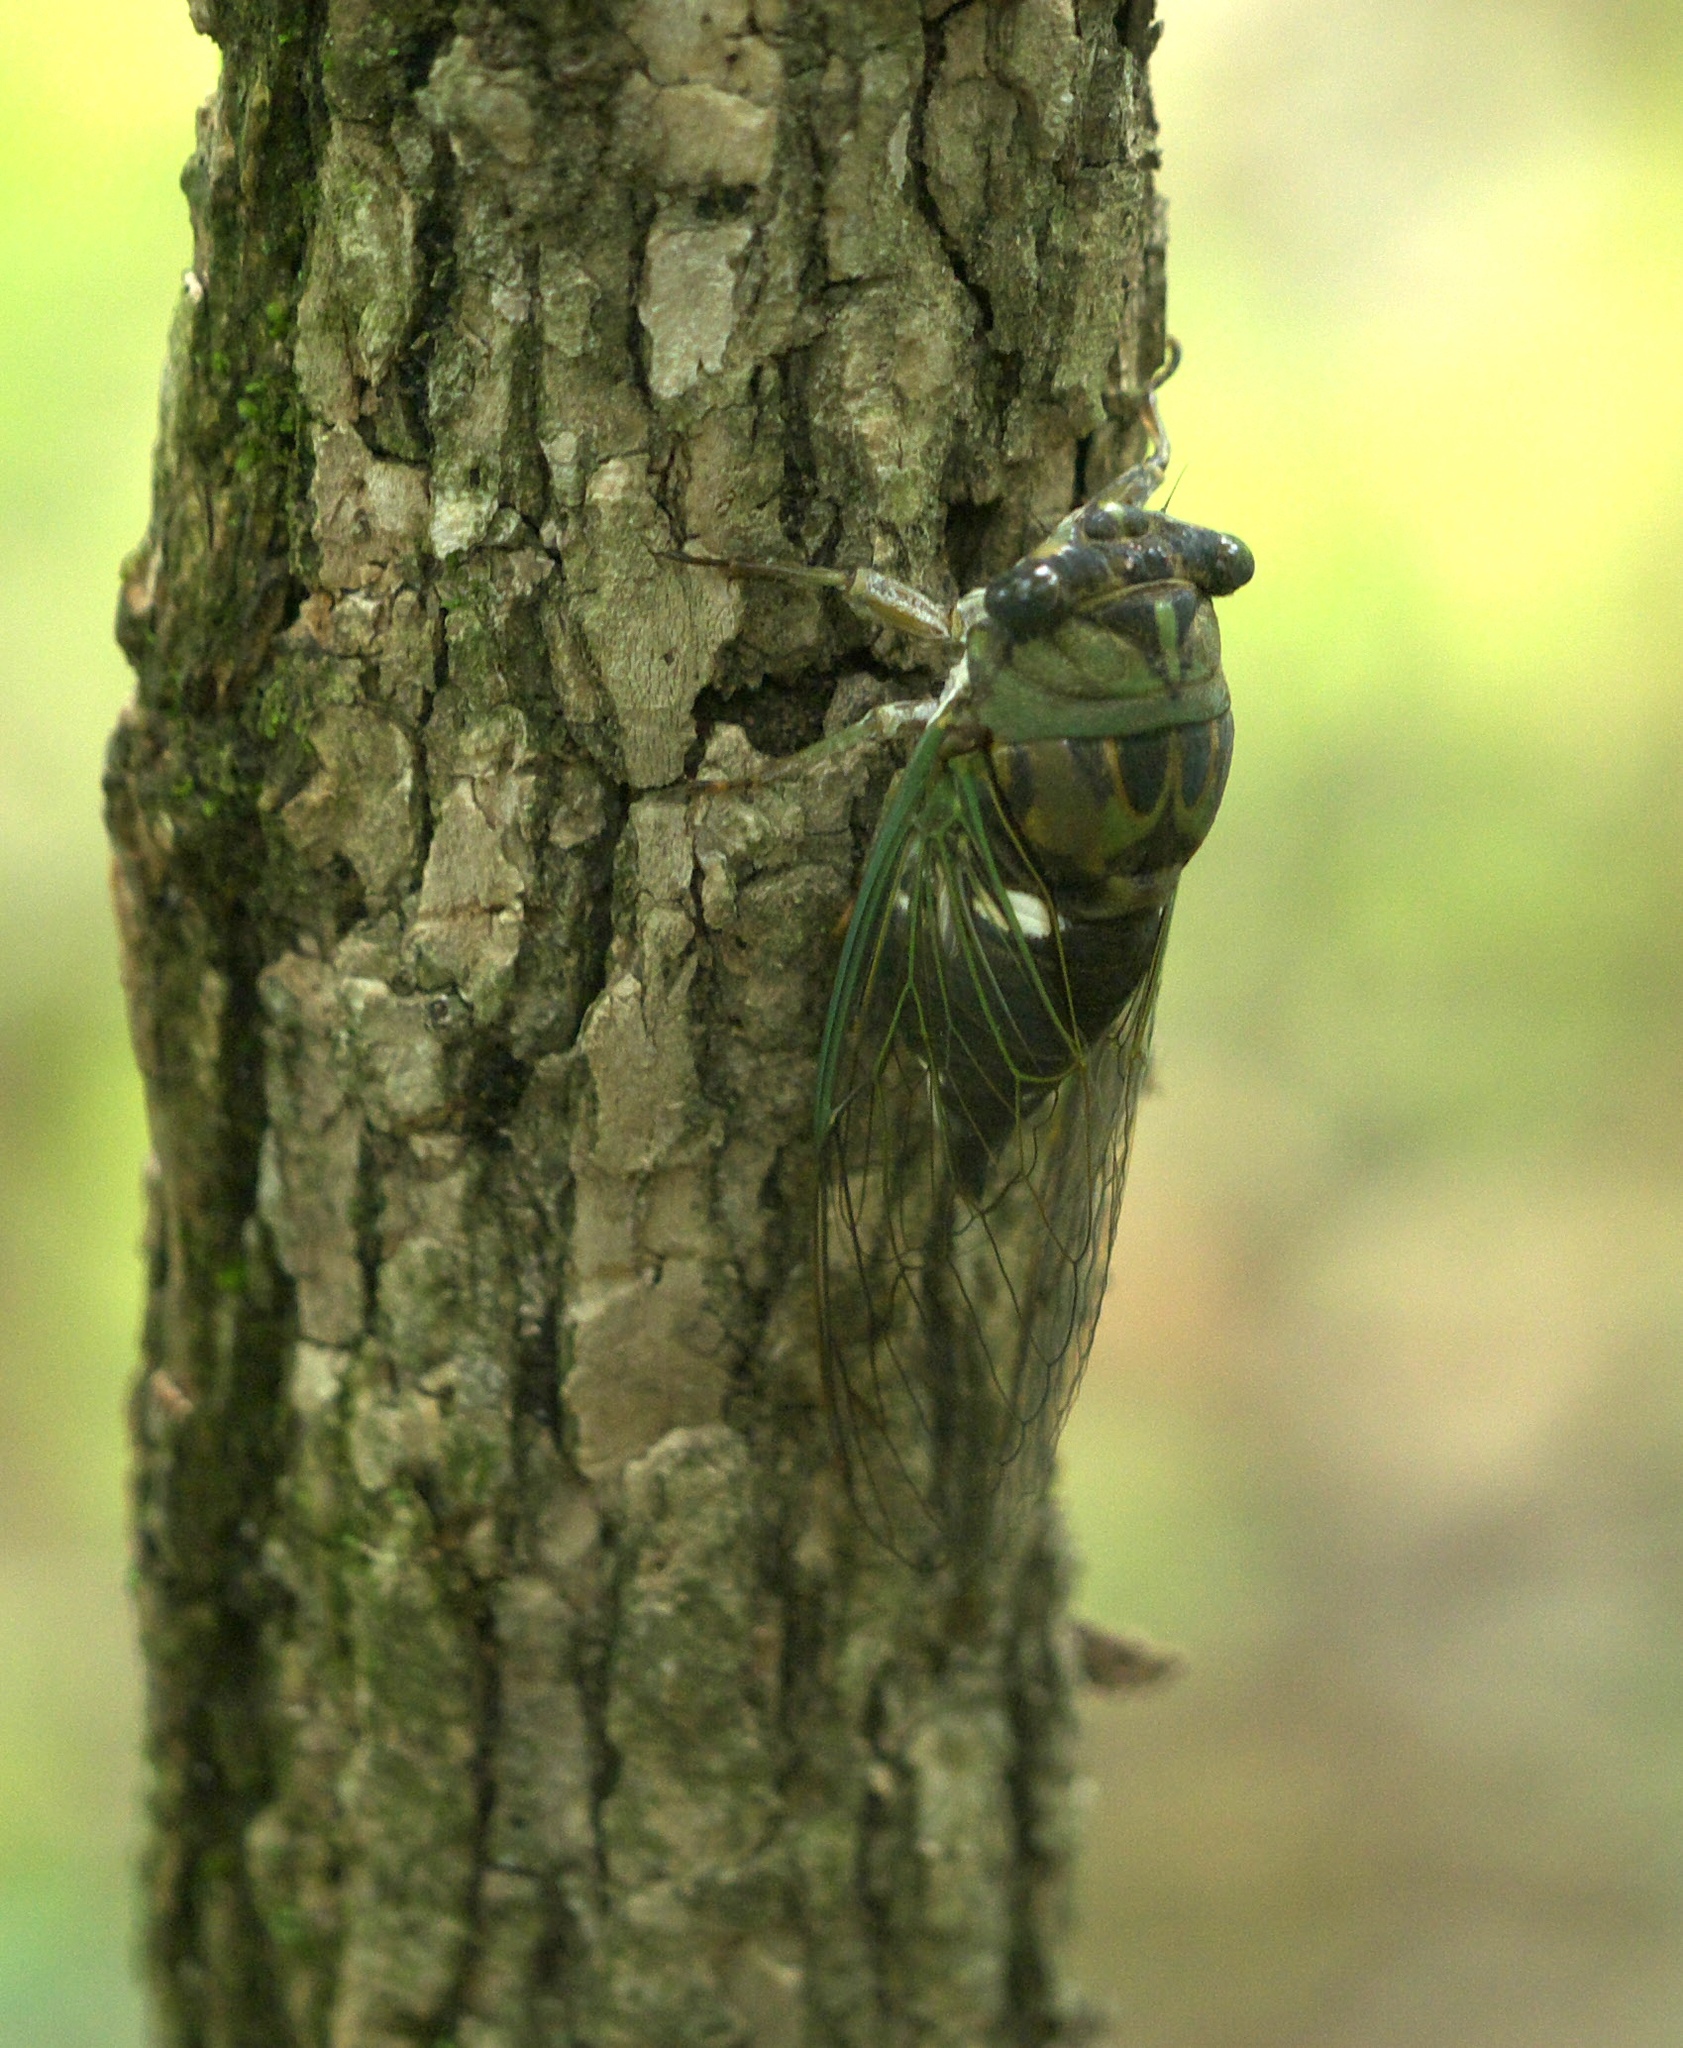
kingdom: Animalia
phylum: Arthropoda
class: Insecta
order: Hemiptera
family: Cicadidae
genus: Neotibicen
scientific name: Neotibicen pruinosus
